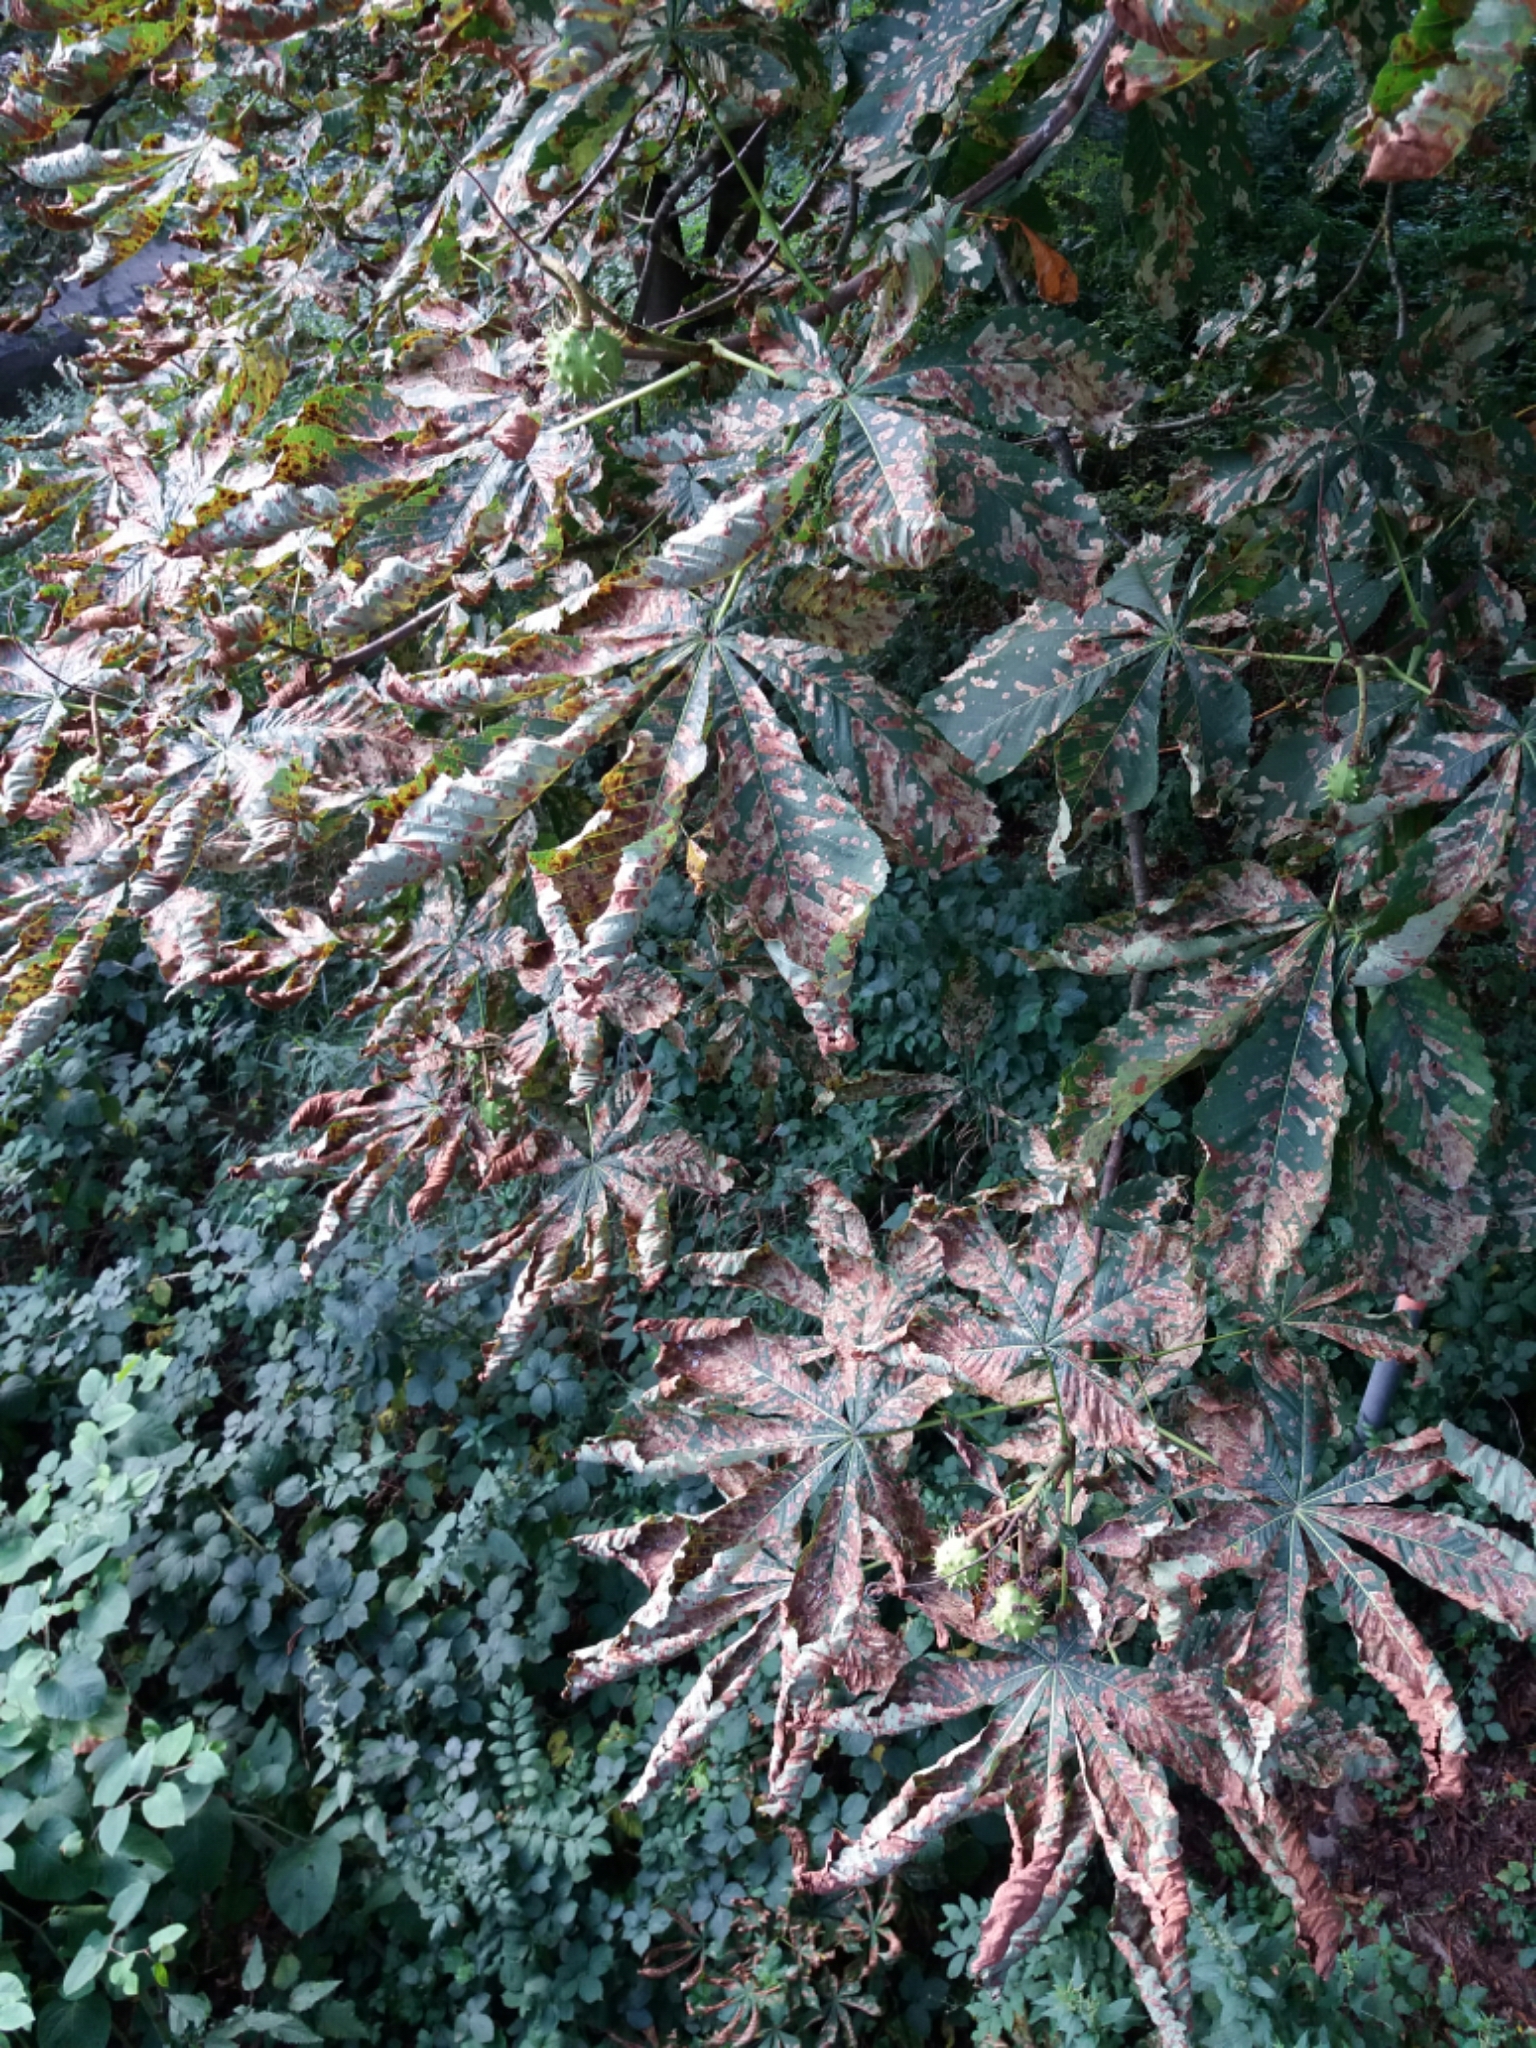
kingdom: Animalia
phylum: Arthropoda
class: Insecta
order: Lepidoptera
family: Gracillariidae
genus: Cameraria
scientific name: Cameraria ohridella
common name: Horse-chestnut leaf-miner
